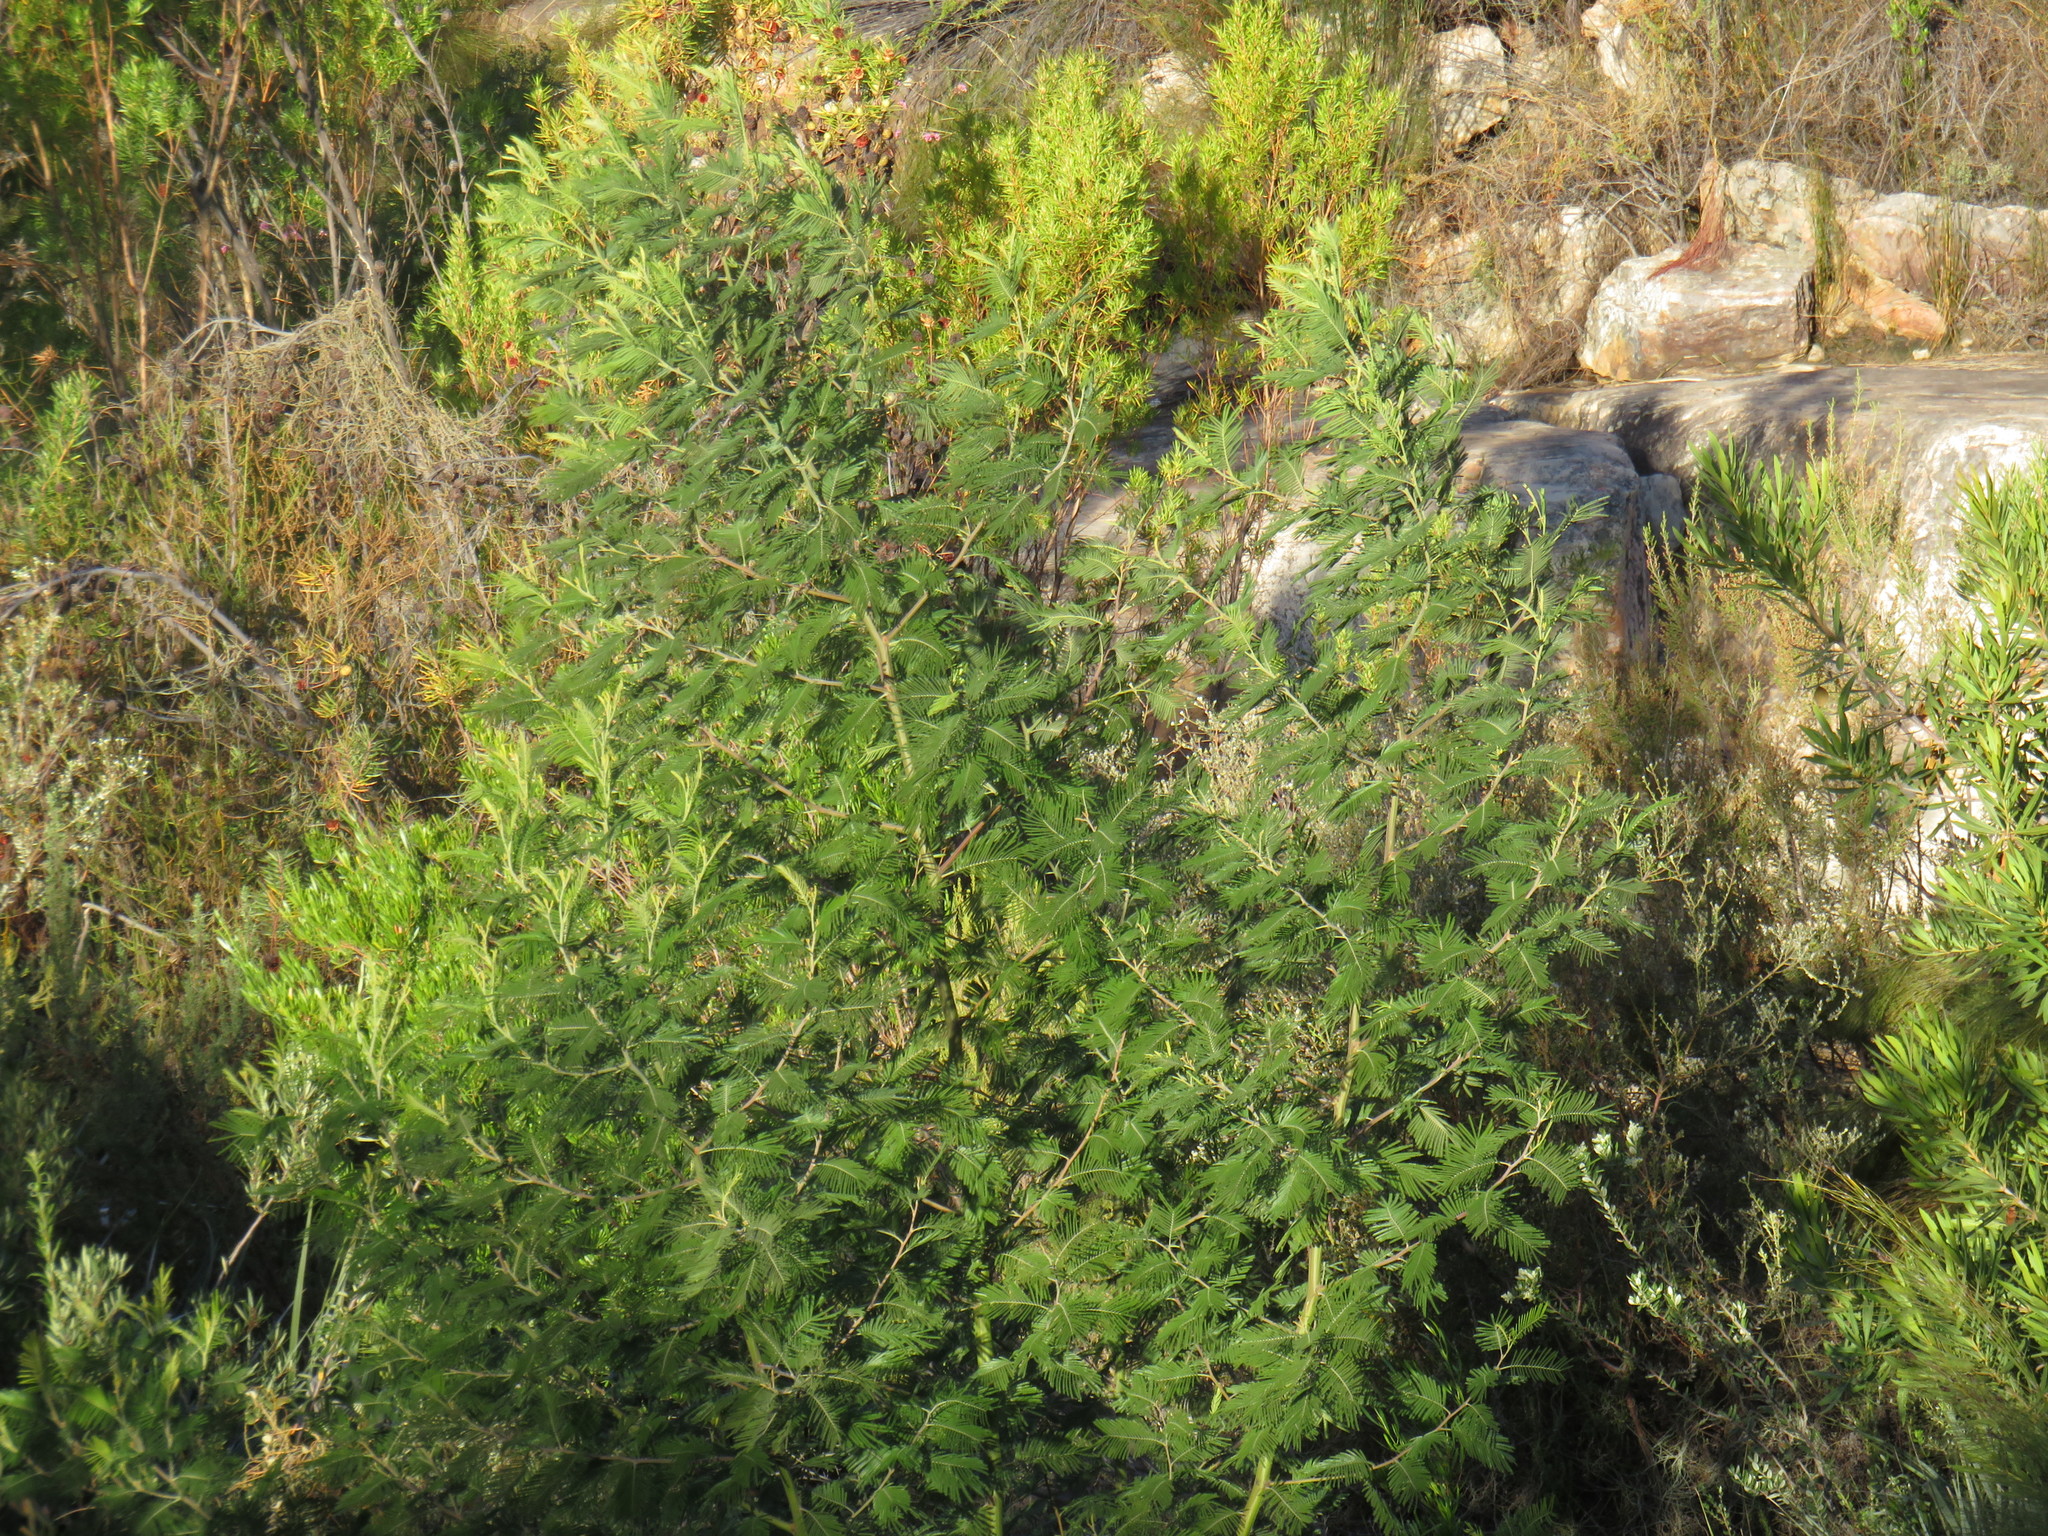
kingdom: Plantae
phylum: Tracheophyta
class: Magnoliopsida
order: Fabales
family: Fabaceae
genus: Acacia
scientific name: Acacia mearnsii
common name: Black wattle
